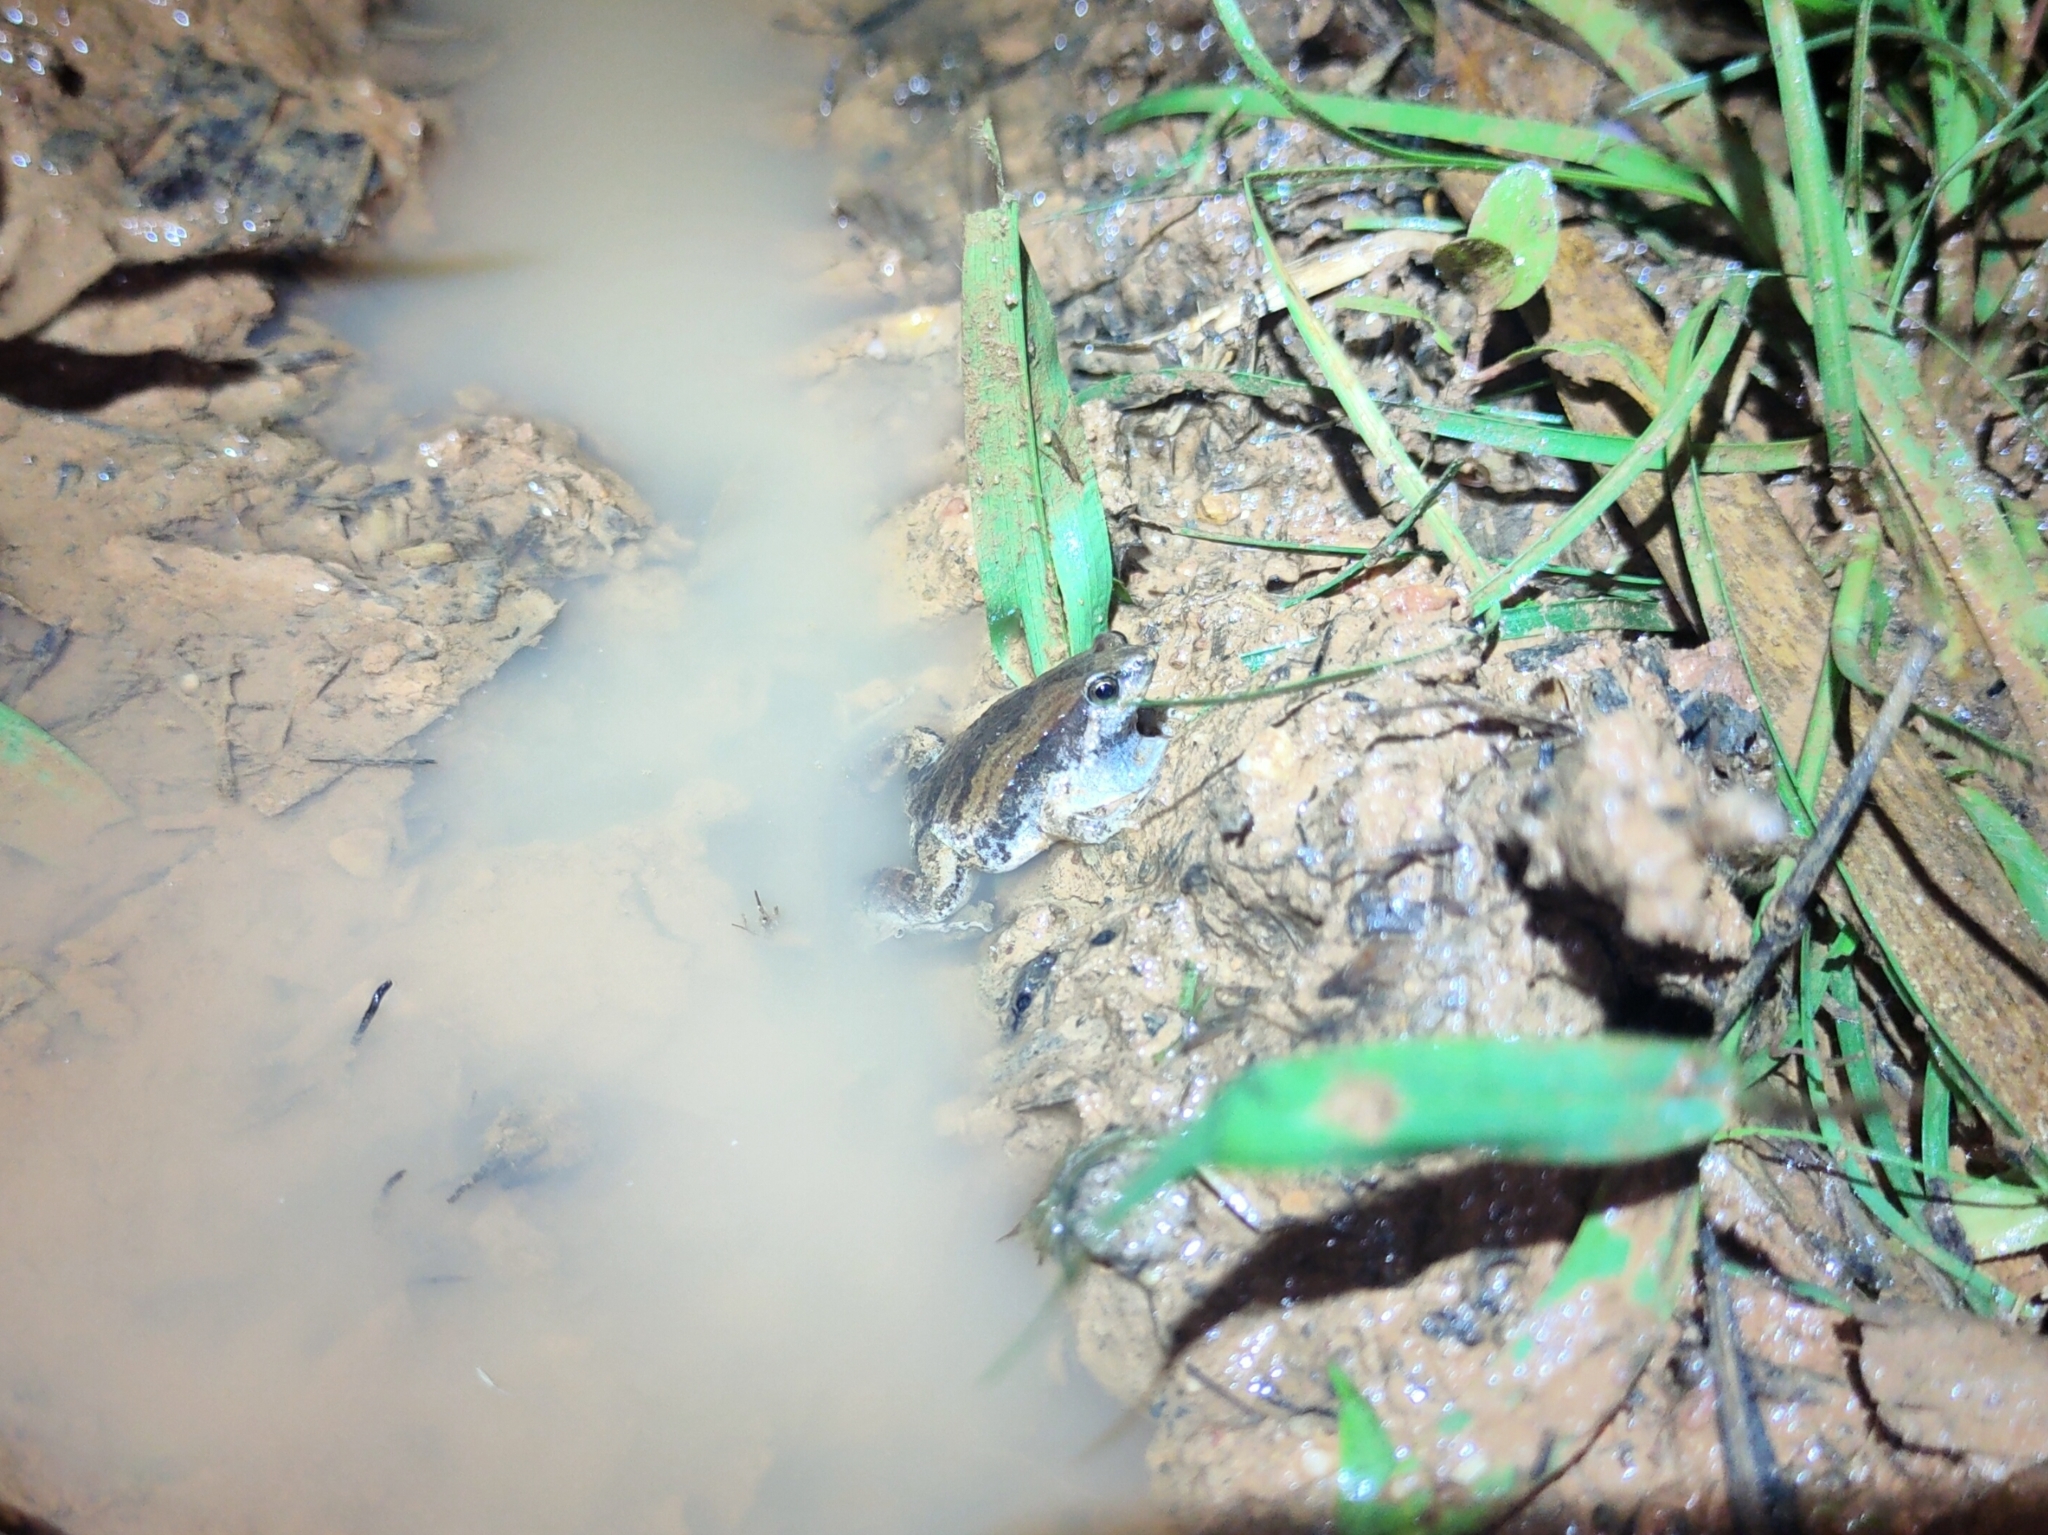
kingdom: Animalia
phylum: Chordata
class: Amphibia
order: Anura
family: Microhylidae
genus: Microhyla
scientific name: Microhyla mukhlesuri
